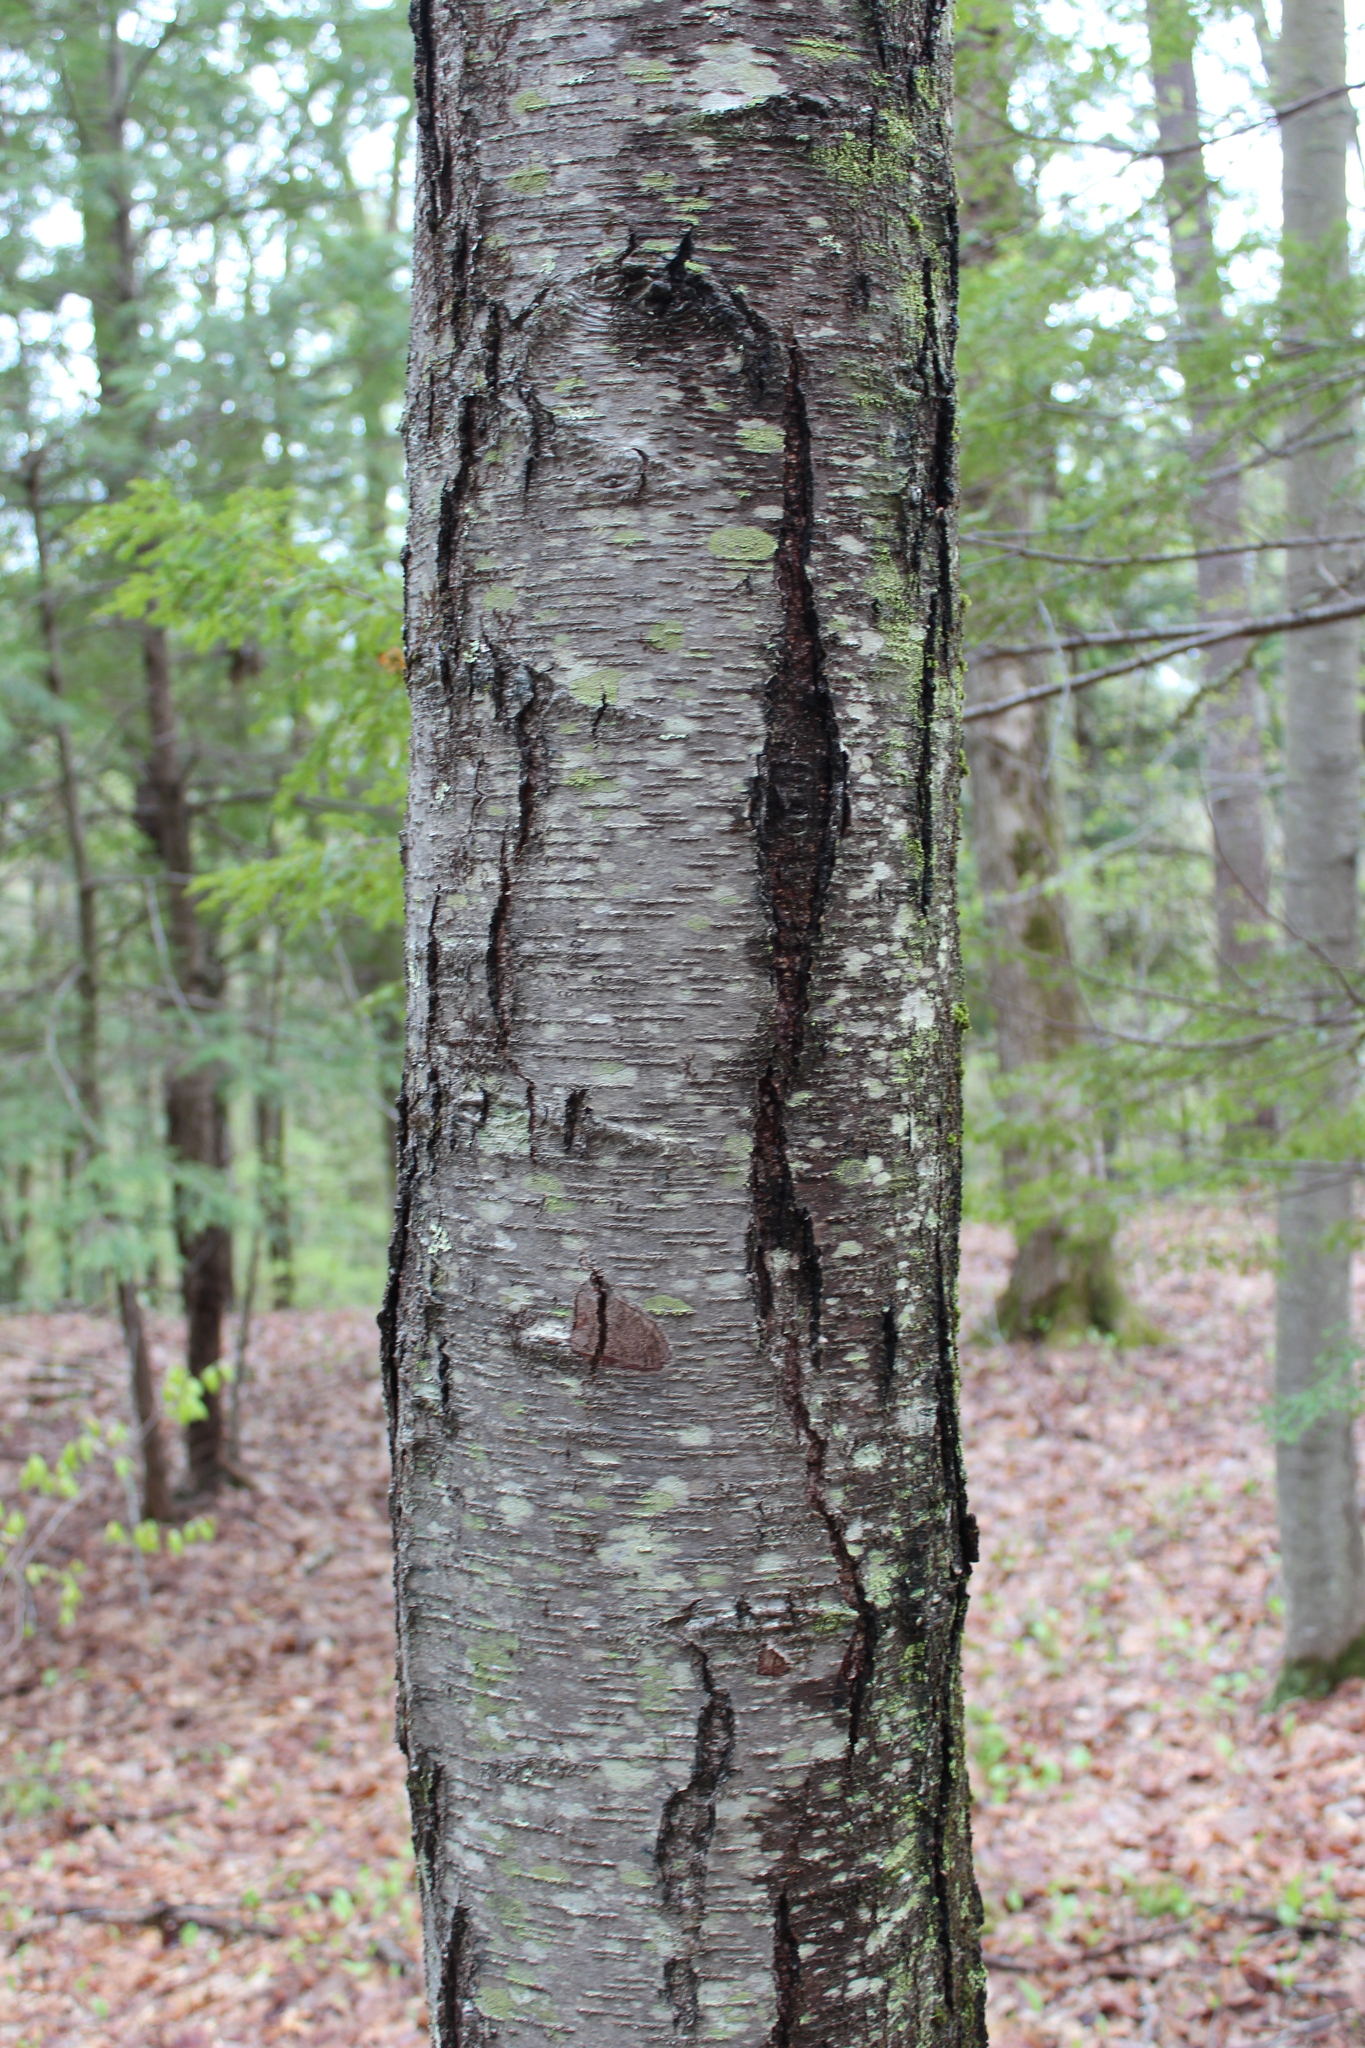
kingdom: Plantae
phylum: Tracheophyta
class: Magnoliopsida
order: Fagales
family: Betulaceae
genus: Betula
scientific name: Betula lenta
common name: Black birch
